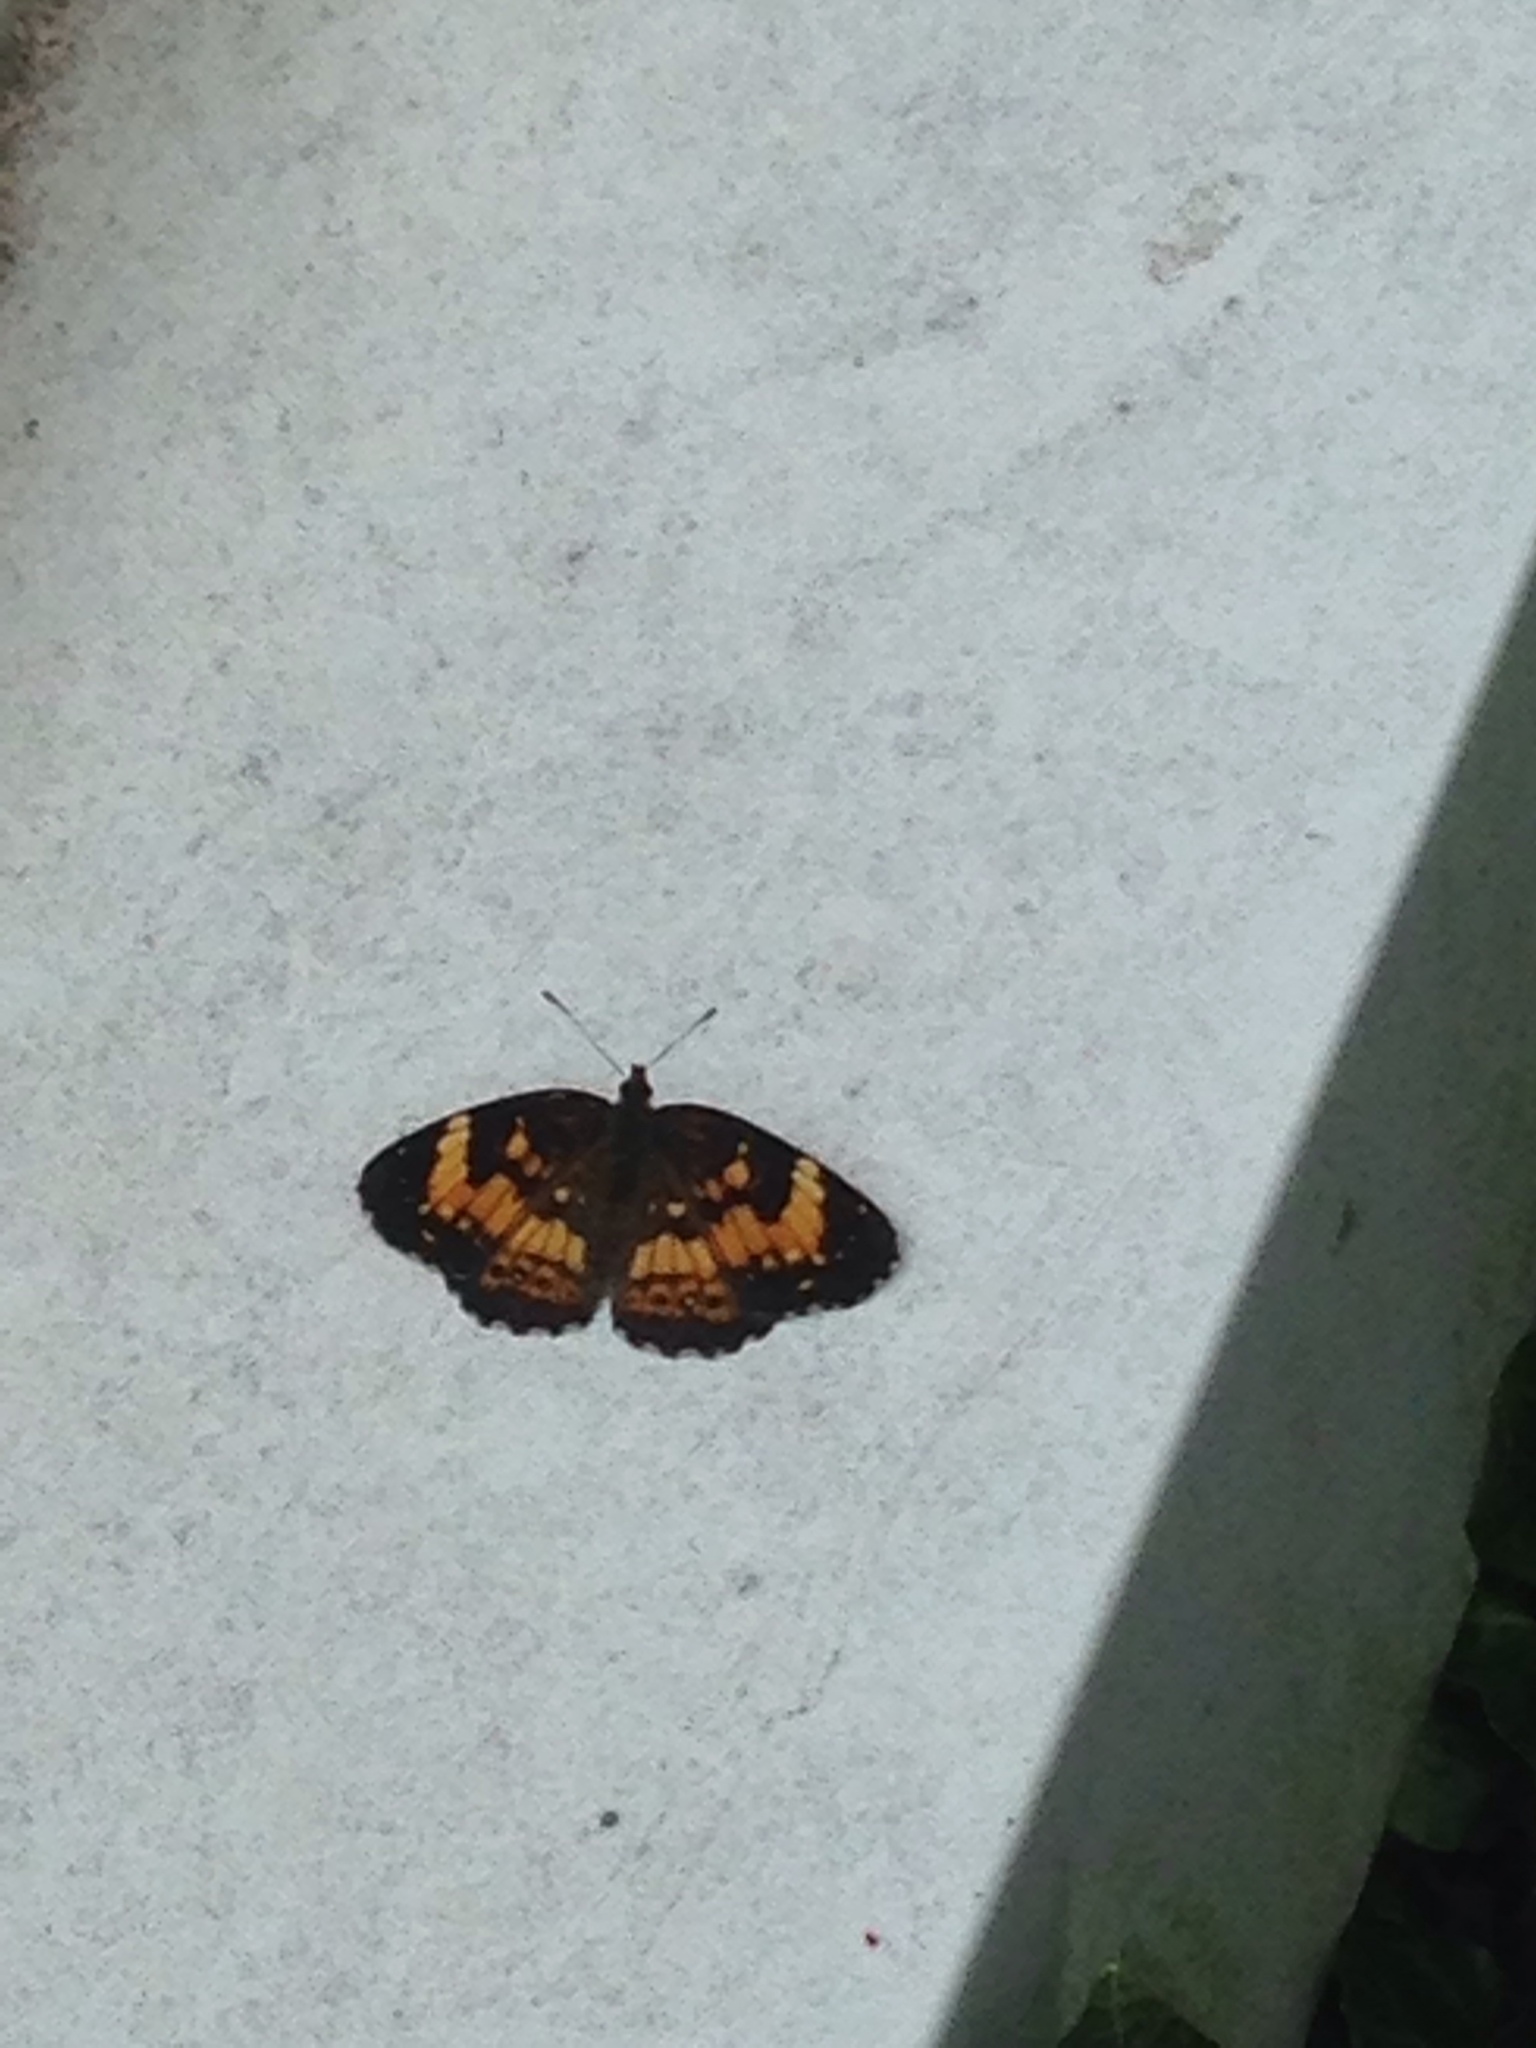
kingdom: Animalia
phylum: Arthropoda
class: Insecta
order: Lepidoptera
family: Nymphalidae
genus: Chlosyne
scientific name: Chlosyne nycteis
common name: Silvery checkerspot
